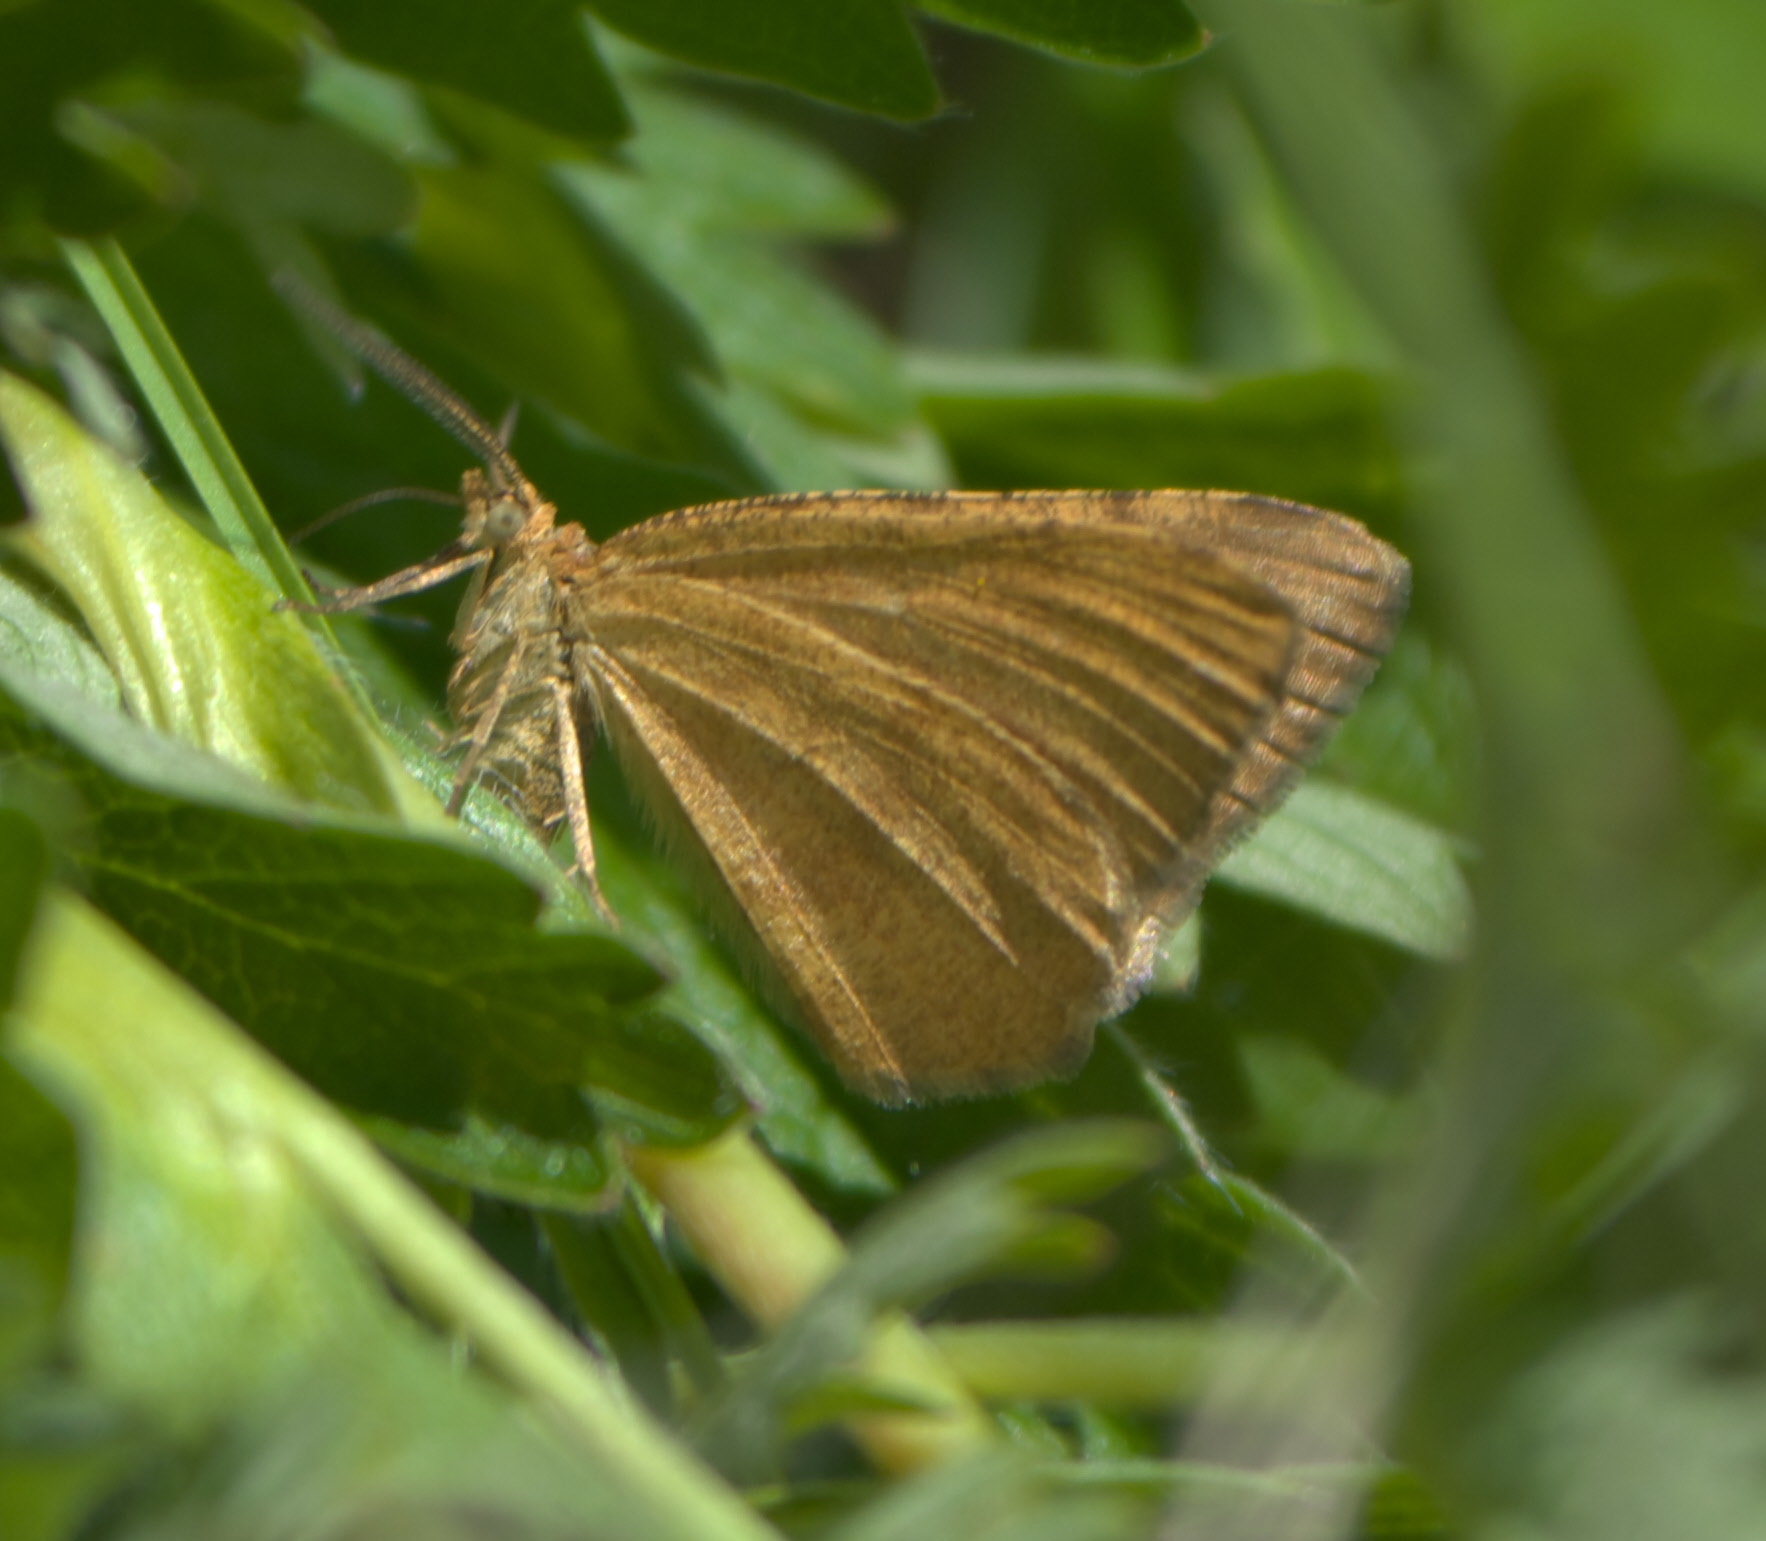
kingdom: Animalia
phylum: Arthropoda
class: Insecta
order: Lepidoptera
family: Geometridae
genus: Macaria
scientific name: Macaria brunneata
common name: Rannoch looper
